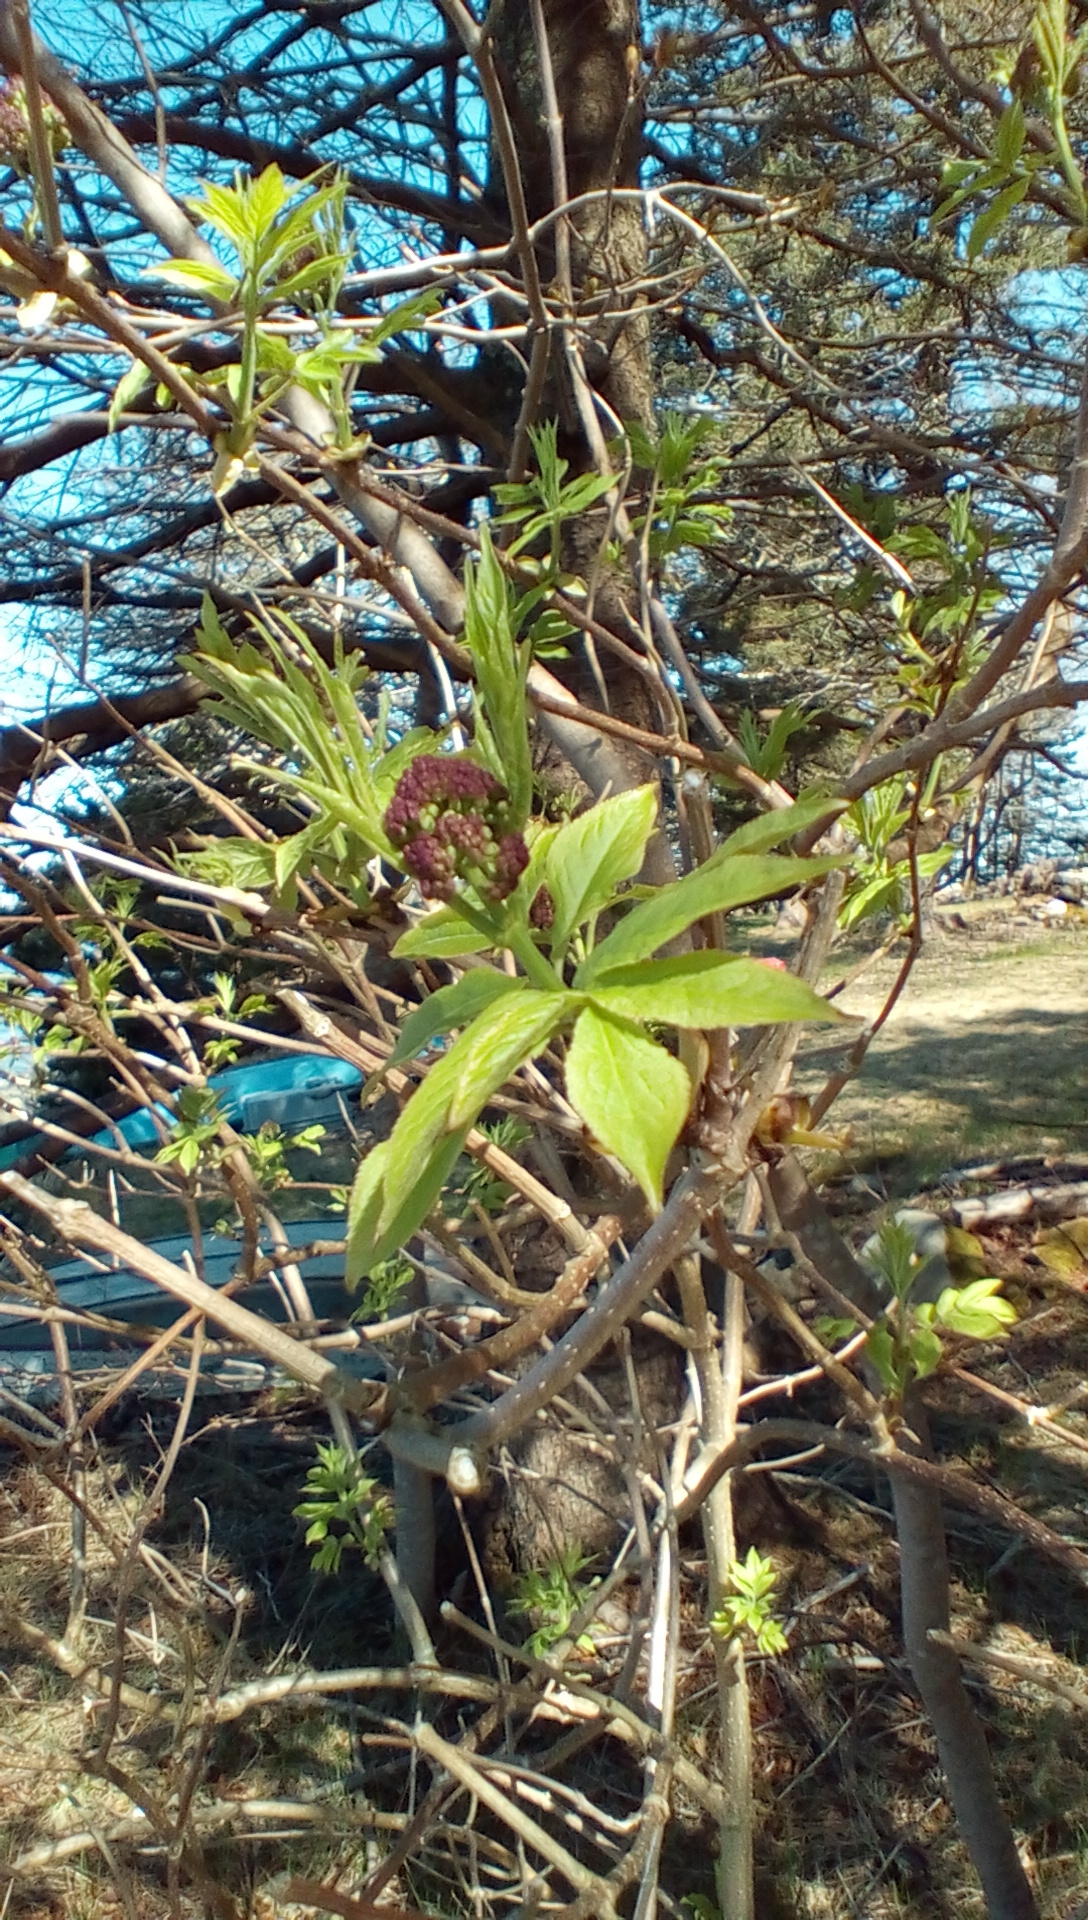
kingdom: Plantae
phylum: Tracheophyta
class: Magnoliopsida
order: Dipsacales
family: Viburnaceae
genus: Sambucus
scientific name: Sambucus racemosa
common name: Red-berried elder
